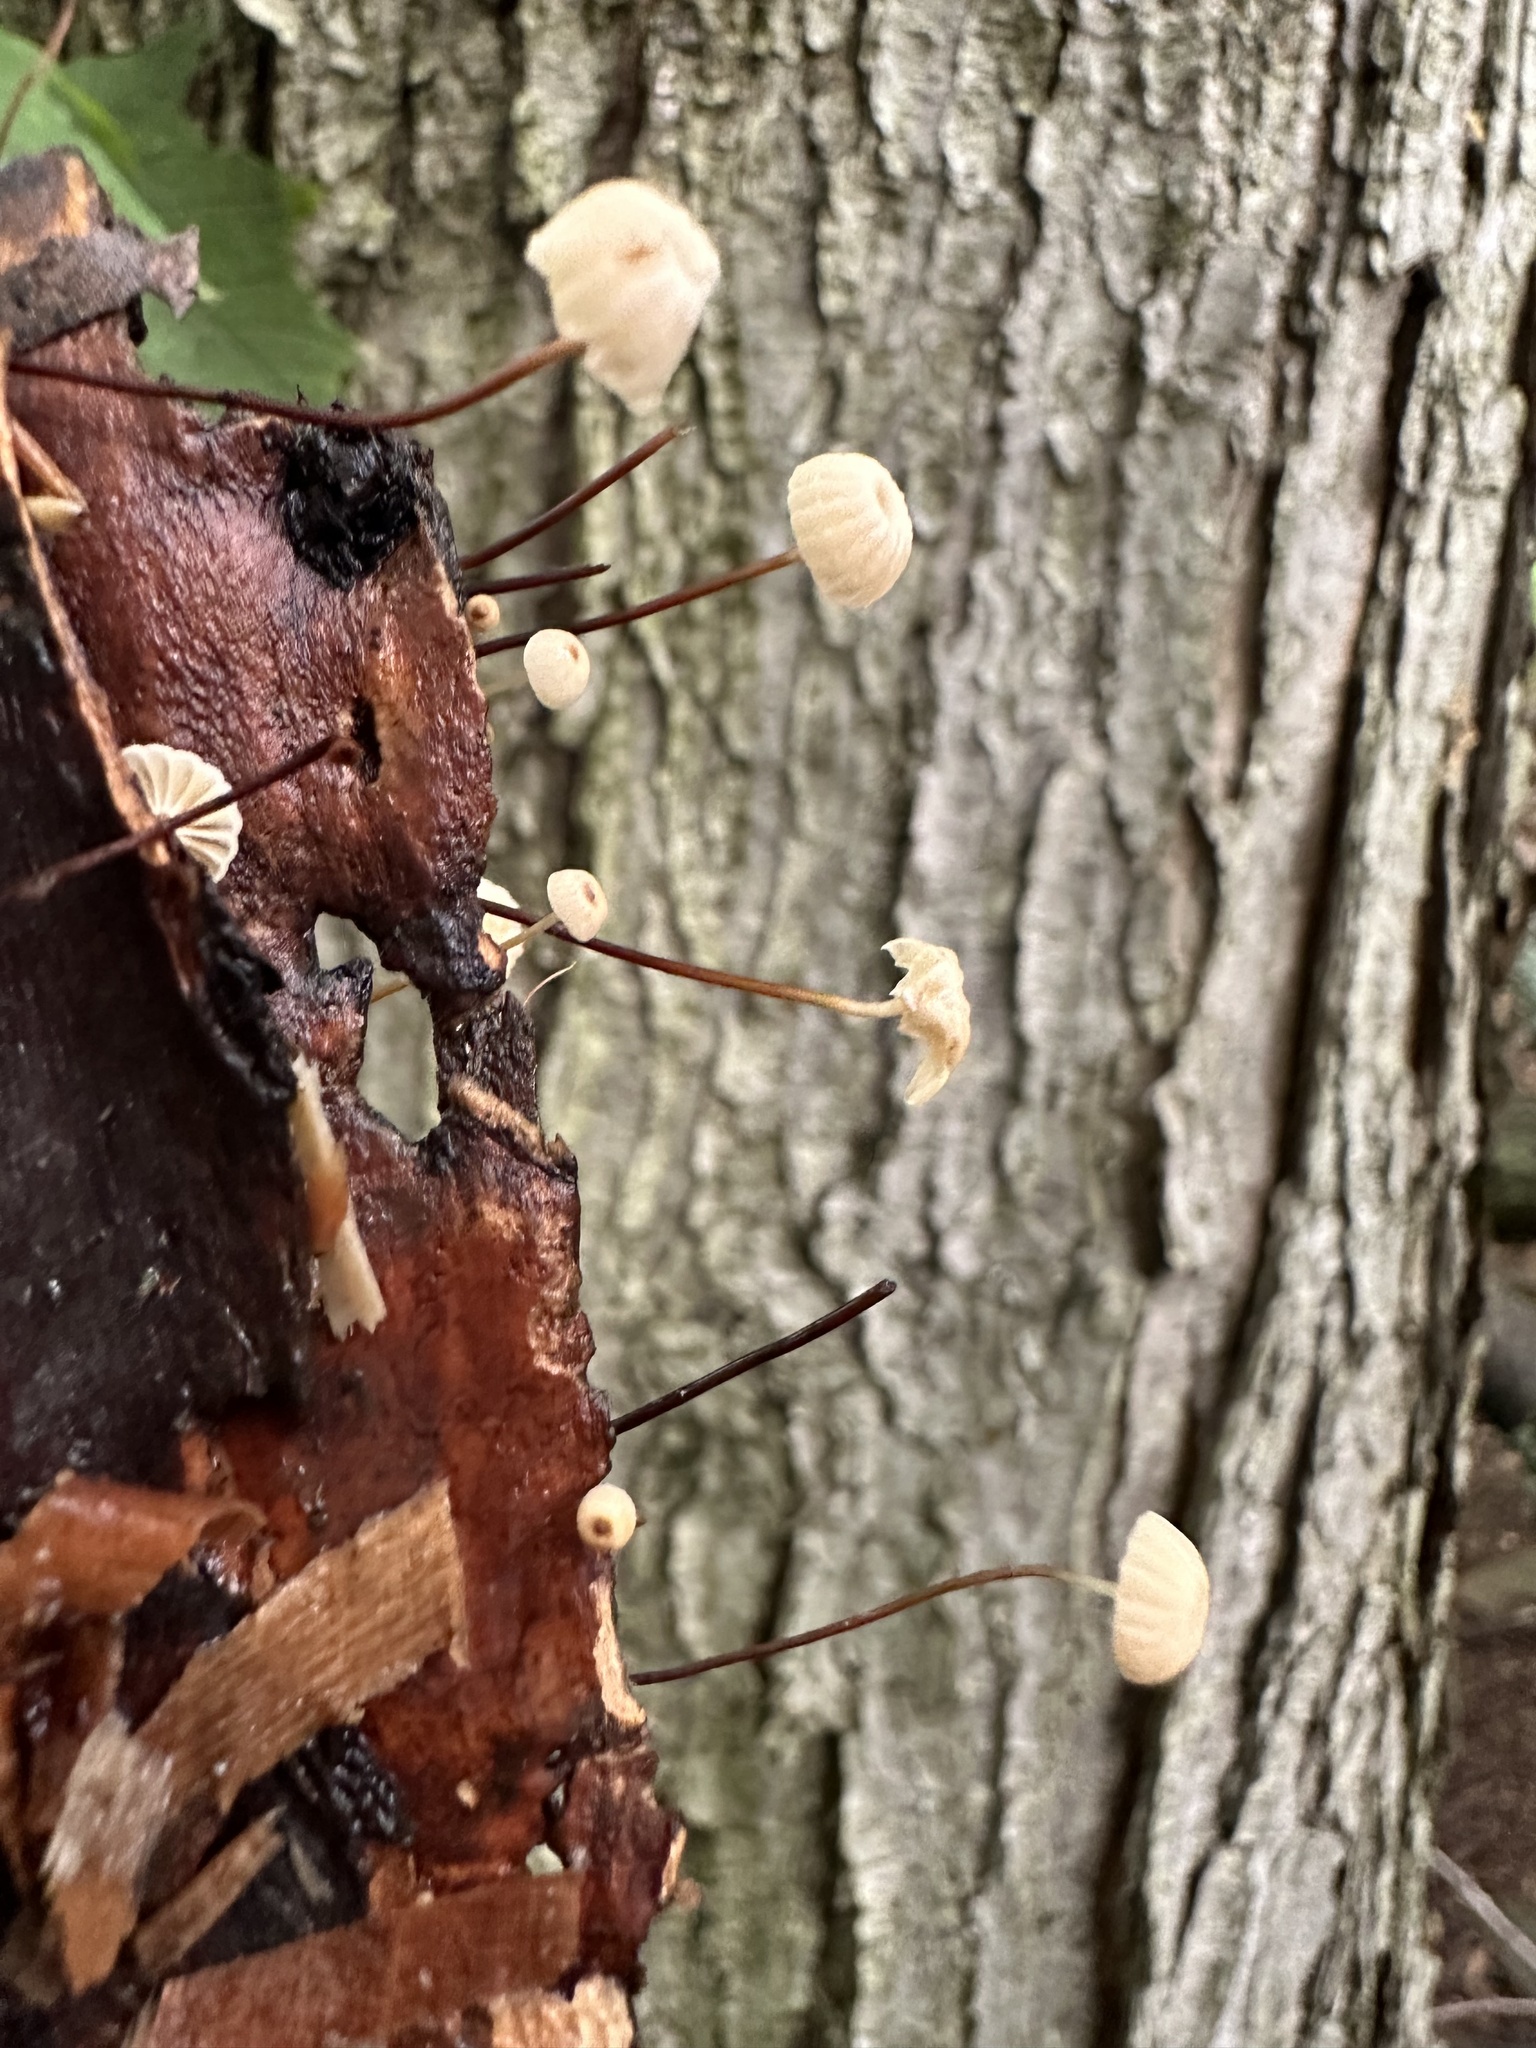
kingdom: Fungi
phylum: Basidiomycota
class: Agaricomycetes
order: Agaricales
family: Marasmiaceae
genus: Marasmius
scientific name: Marasmius rotula
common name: Collared parachute
